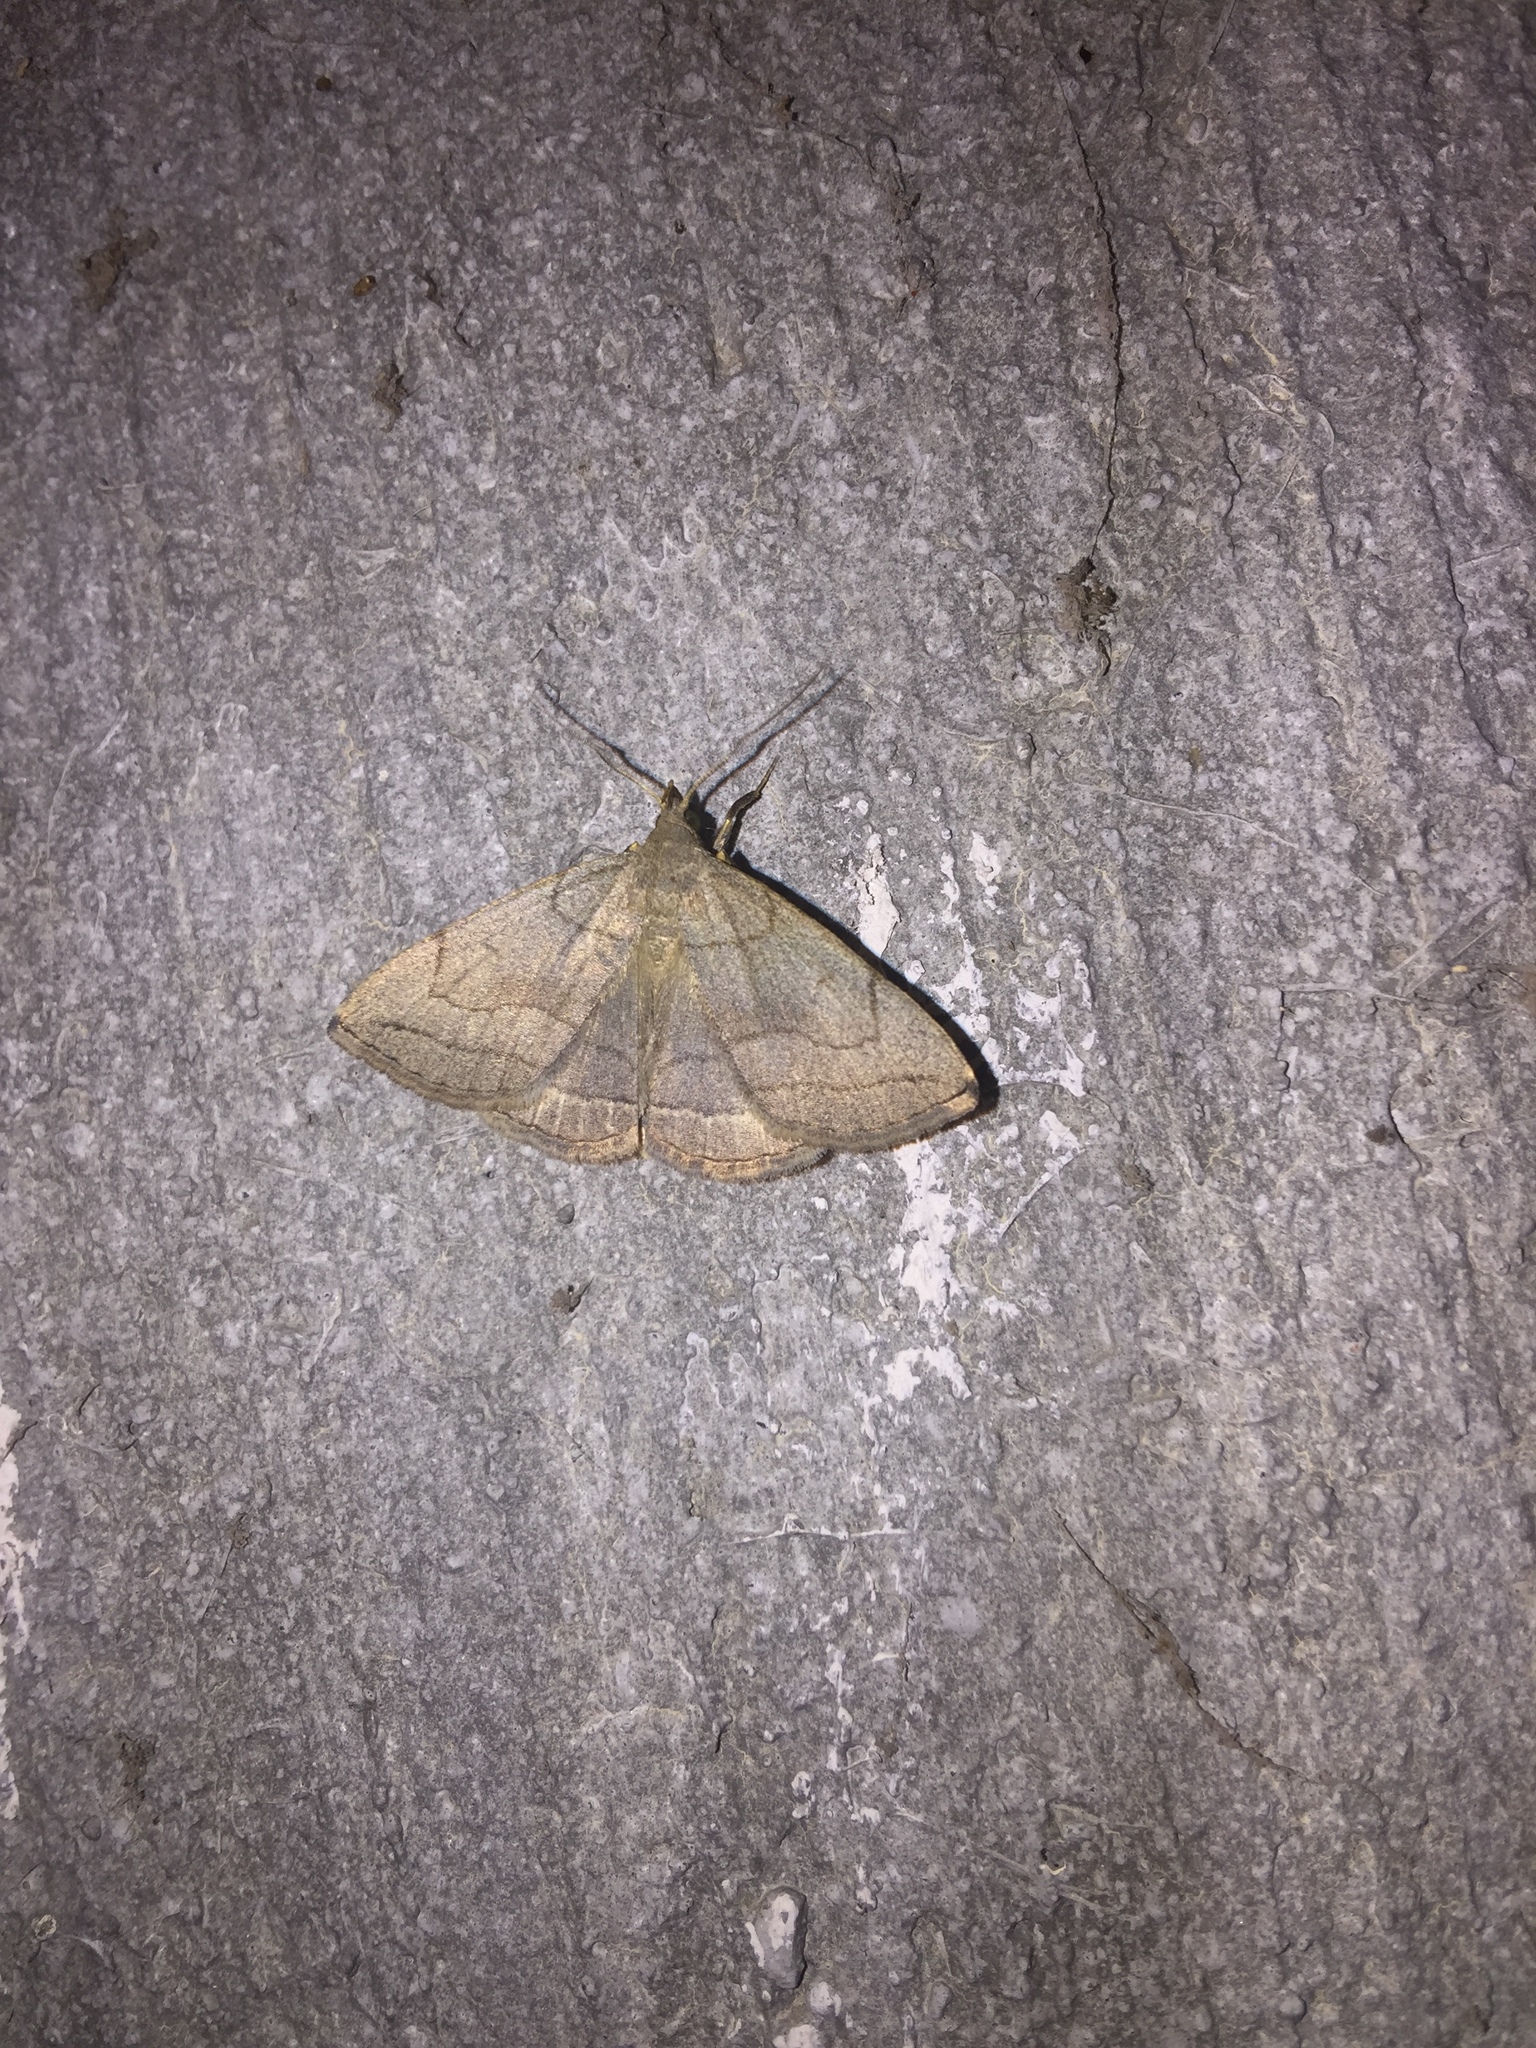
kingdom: Animalia
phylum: Arthropoda
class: Insecta
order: Lepidoptera
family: Erebidae
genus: Zanclognatha
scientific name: Zanclognatha pedipilalis
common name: Grayish fan-foot
